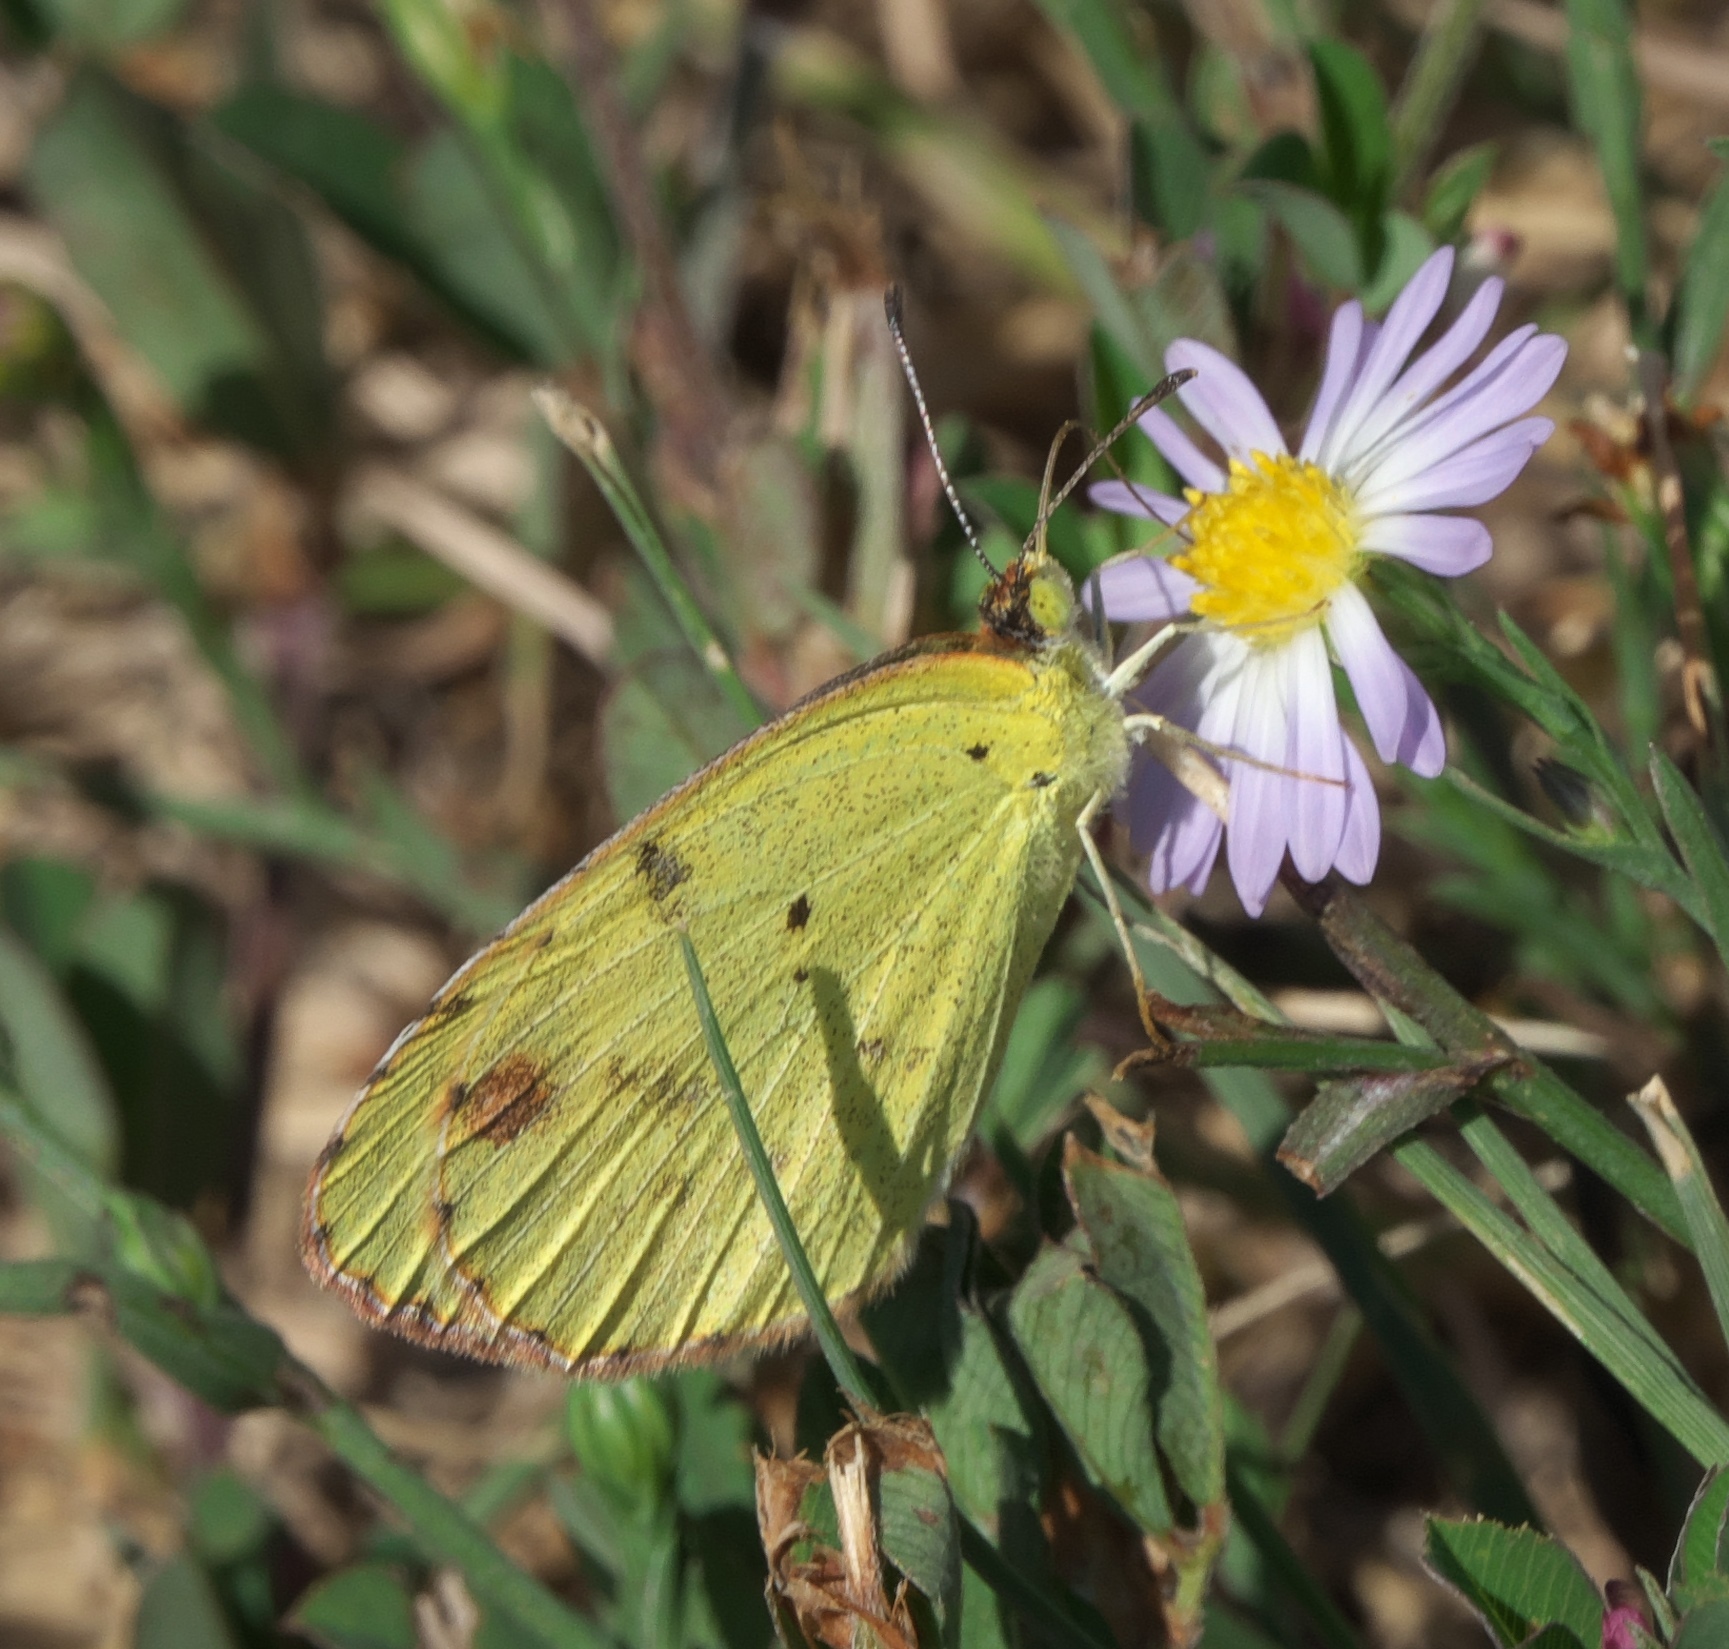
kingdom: Animalia
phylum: Arthropoda
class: Insecta
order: Lepidoptera
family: Pieridae
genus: Pyrisitia
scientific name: Pyrisitia lisa
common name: Little yellow
